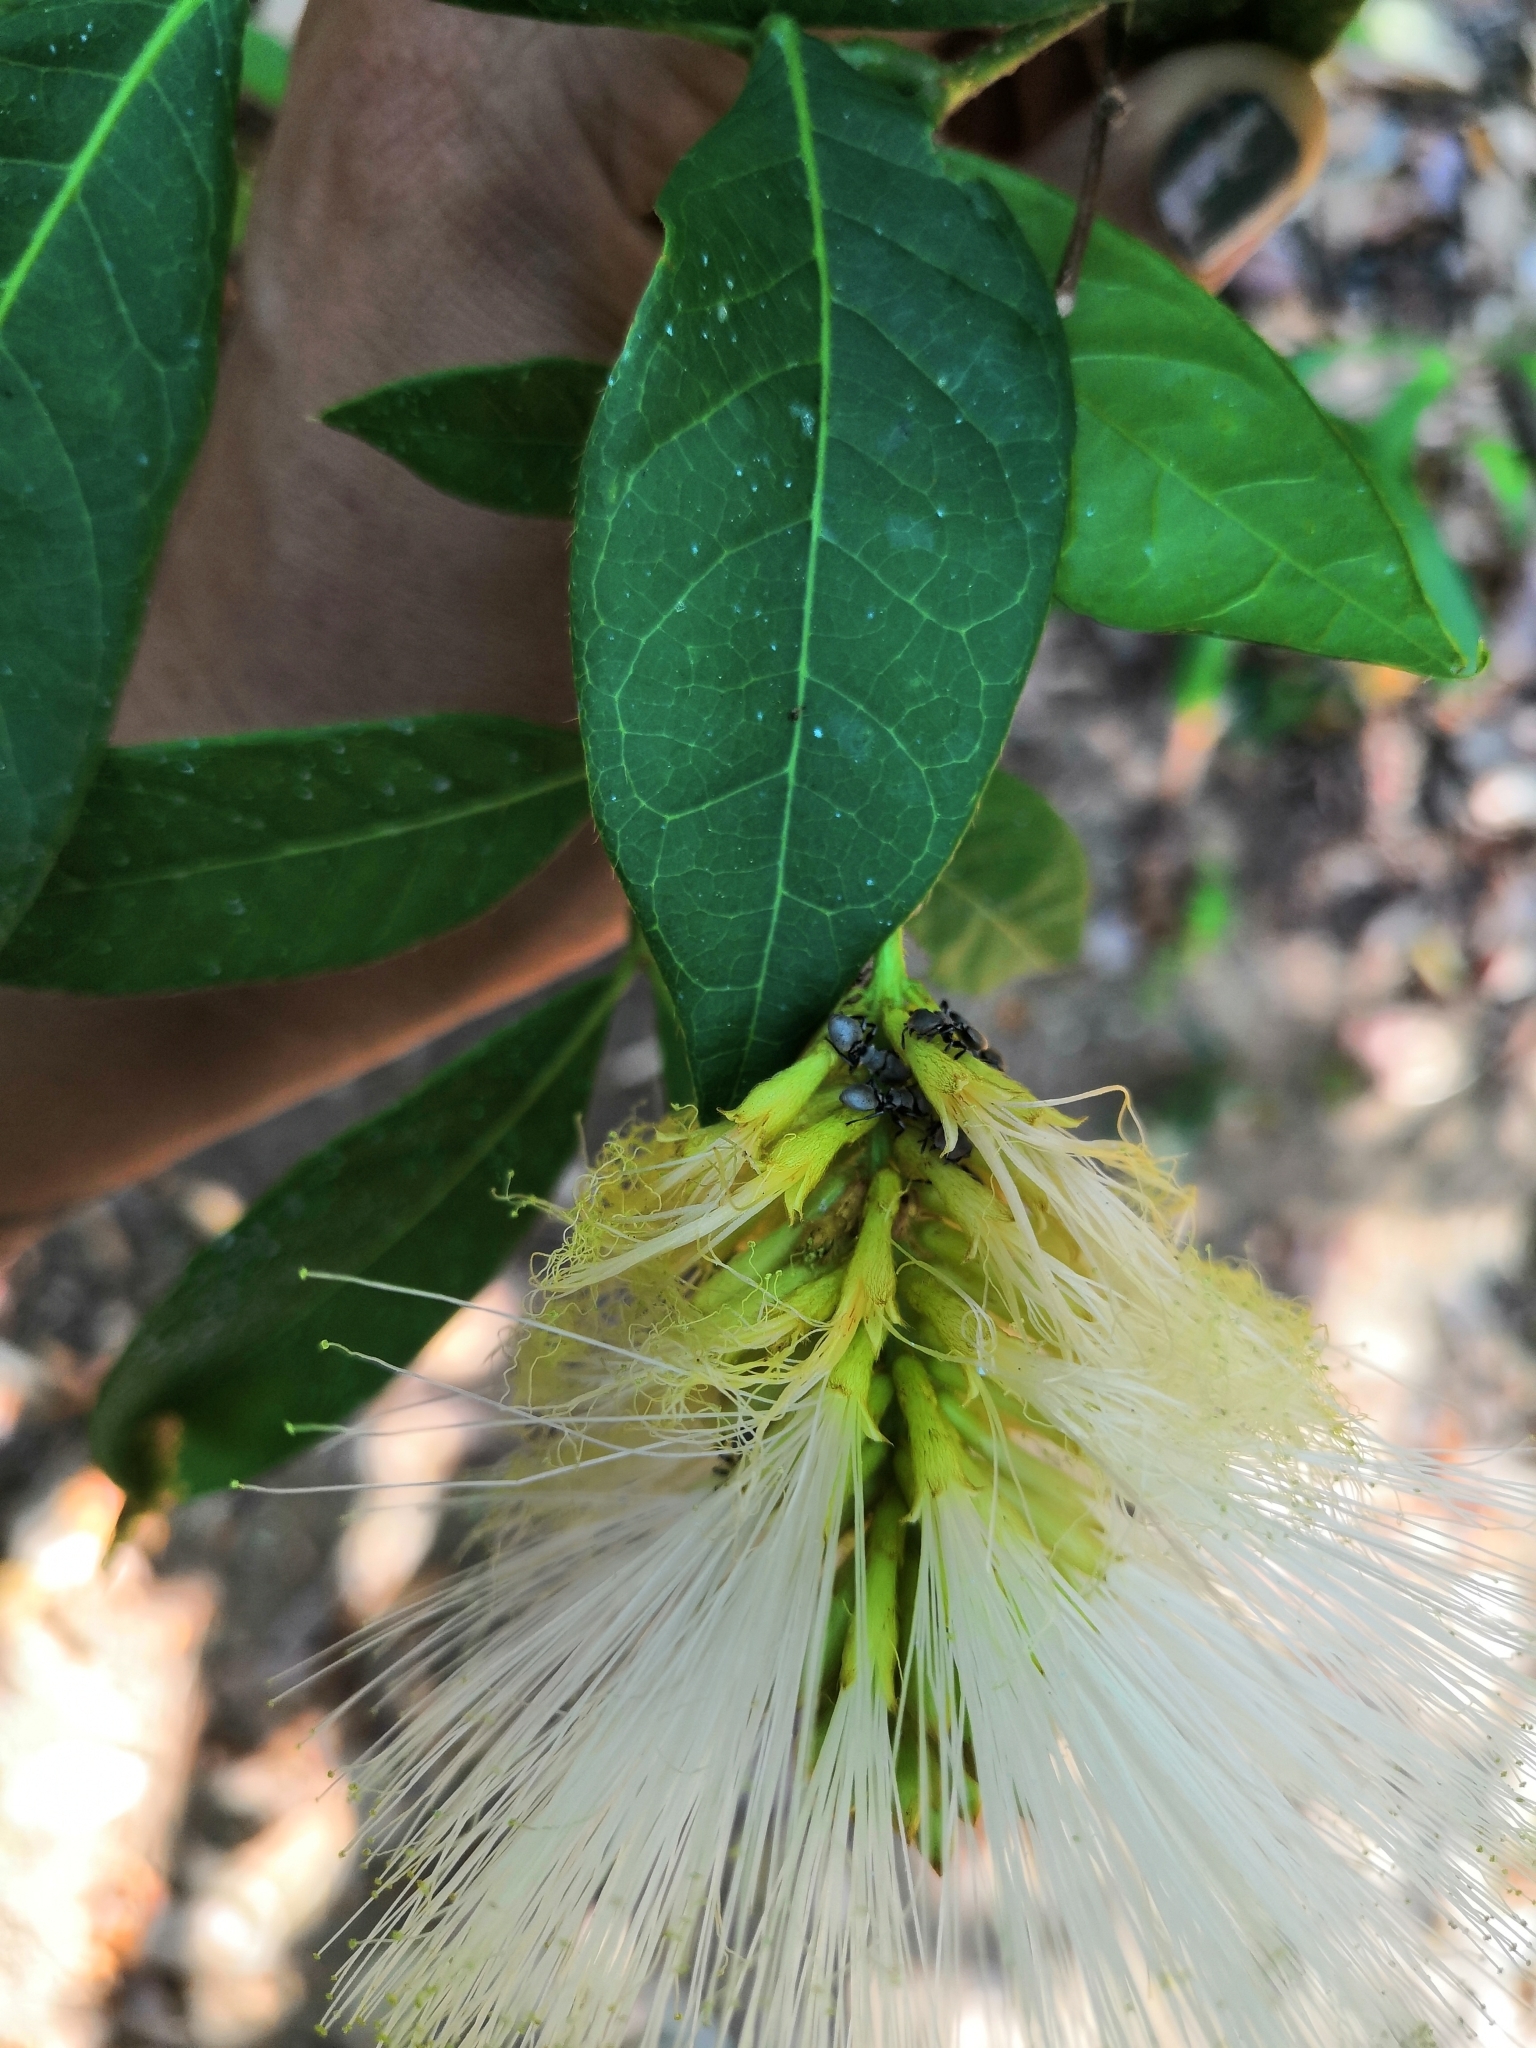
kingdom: Plantae
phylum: Tracheophyta
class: Magnoliopsida
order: Fabales
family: Fabaceae
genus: Inga
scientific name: Inga andersonii
